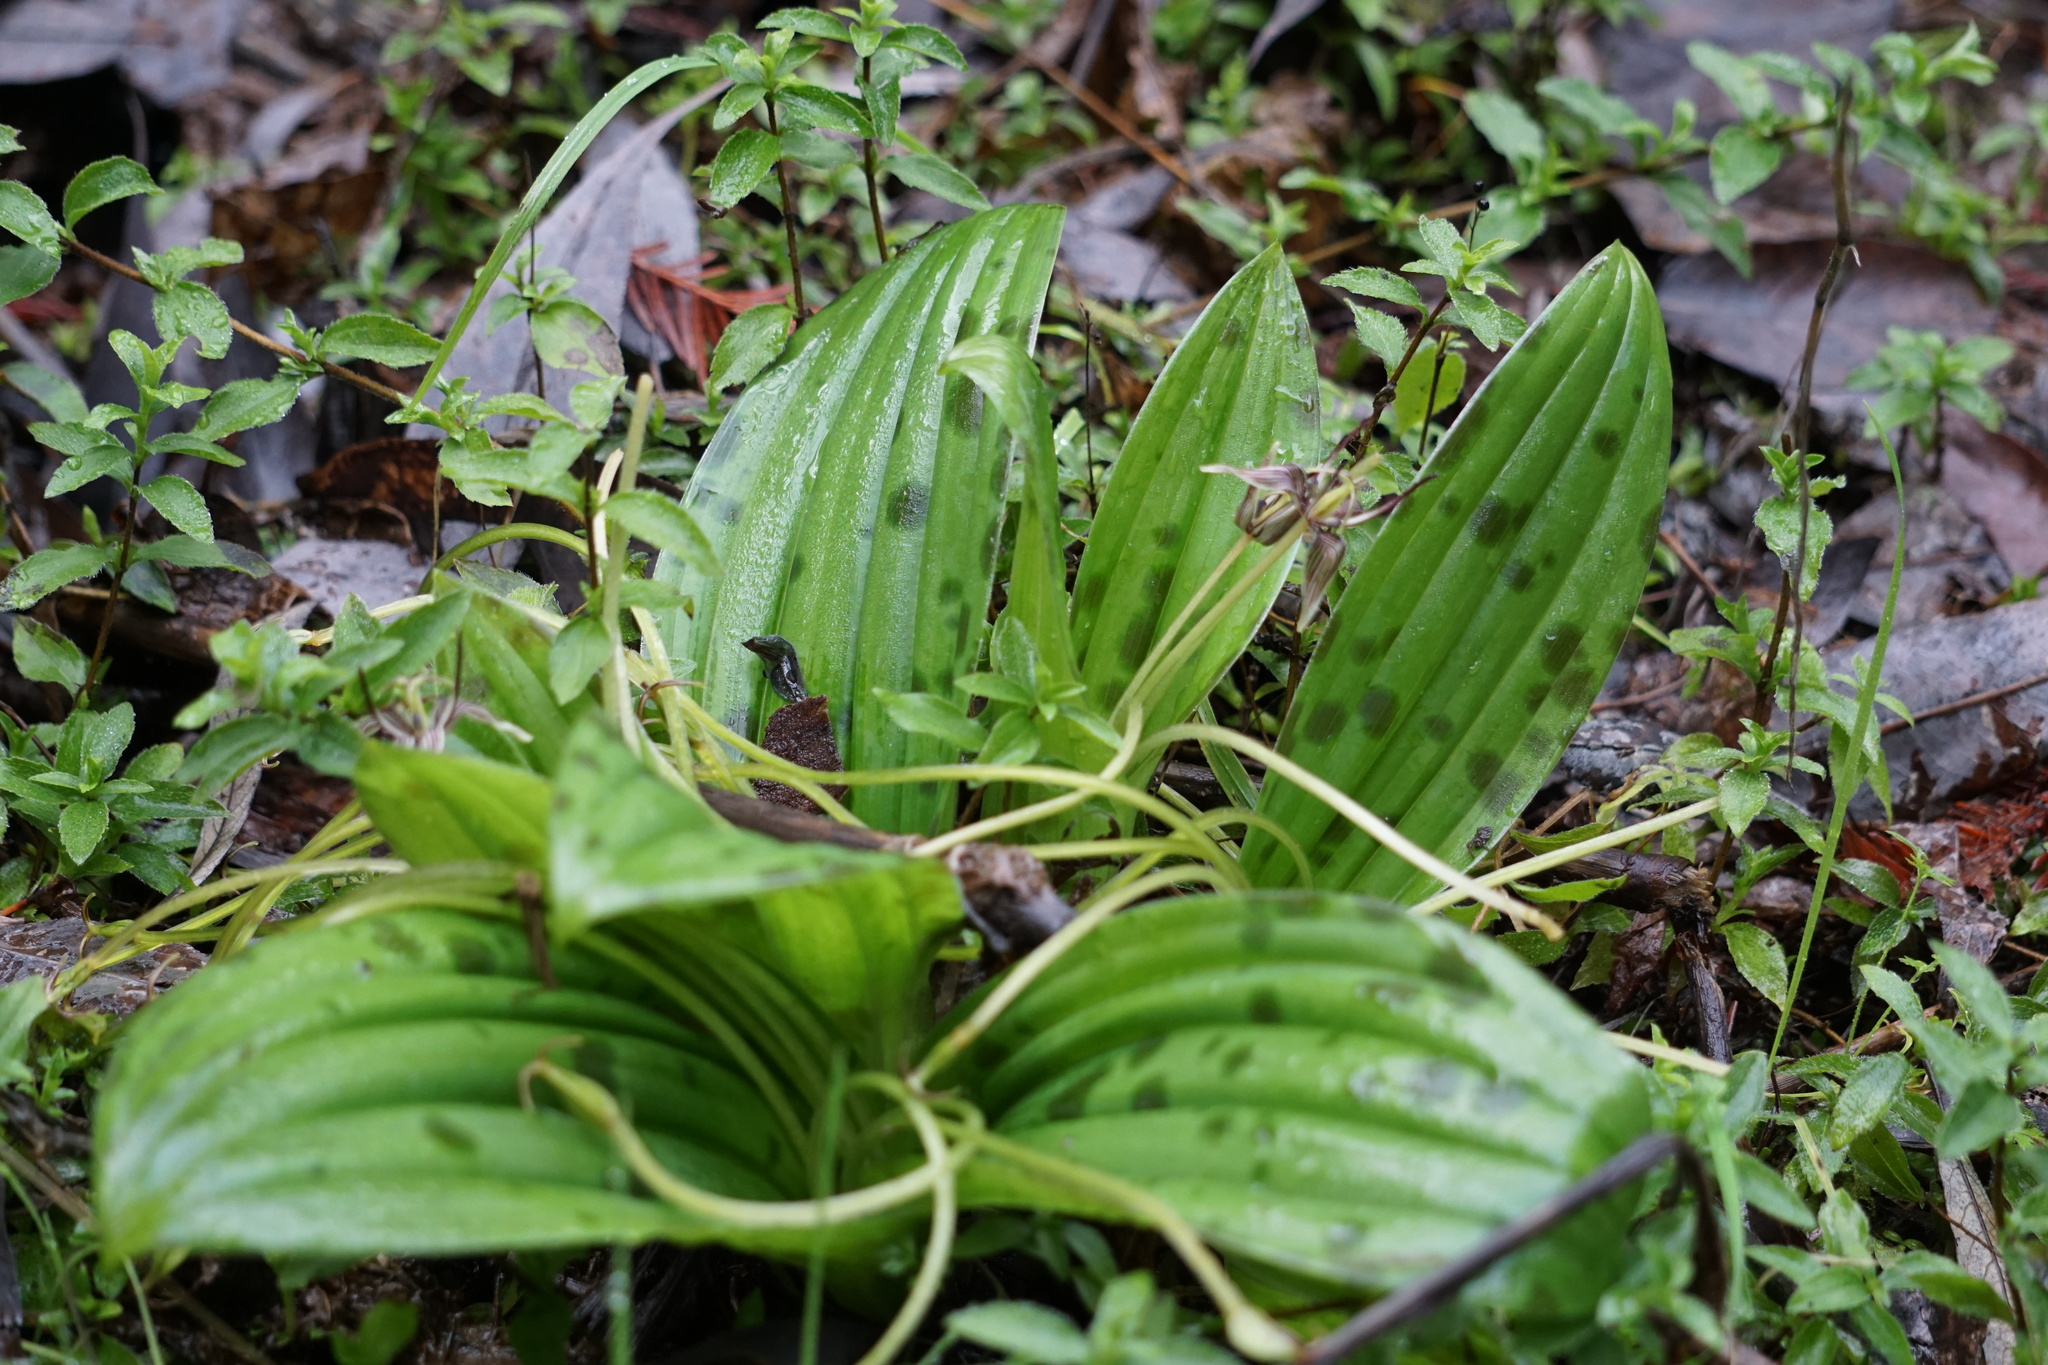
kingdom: Plantae
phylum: Tracheophyta
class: Liliopsida
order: Liliales
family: Liliaceae
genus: Scoliopus
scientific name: Scoliopus bigelovii
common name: Foetid adder's-tongue
